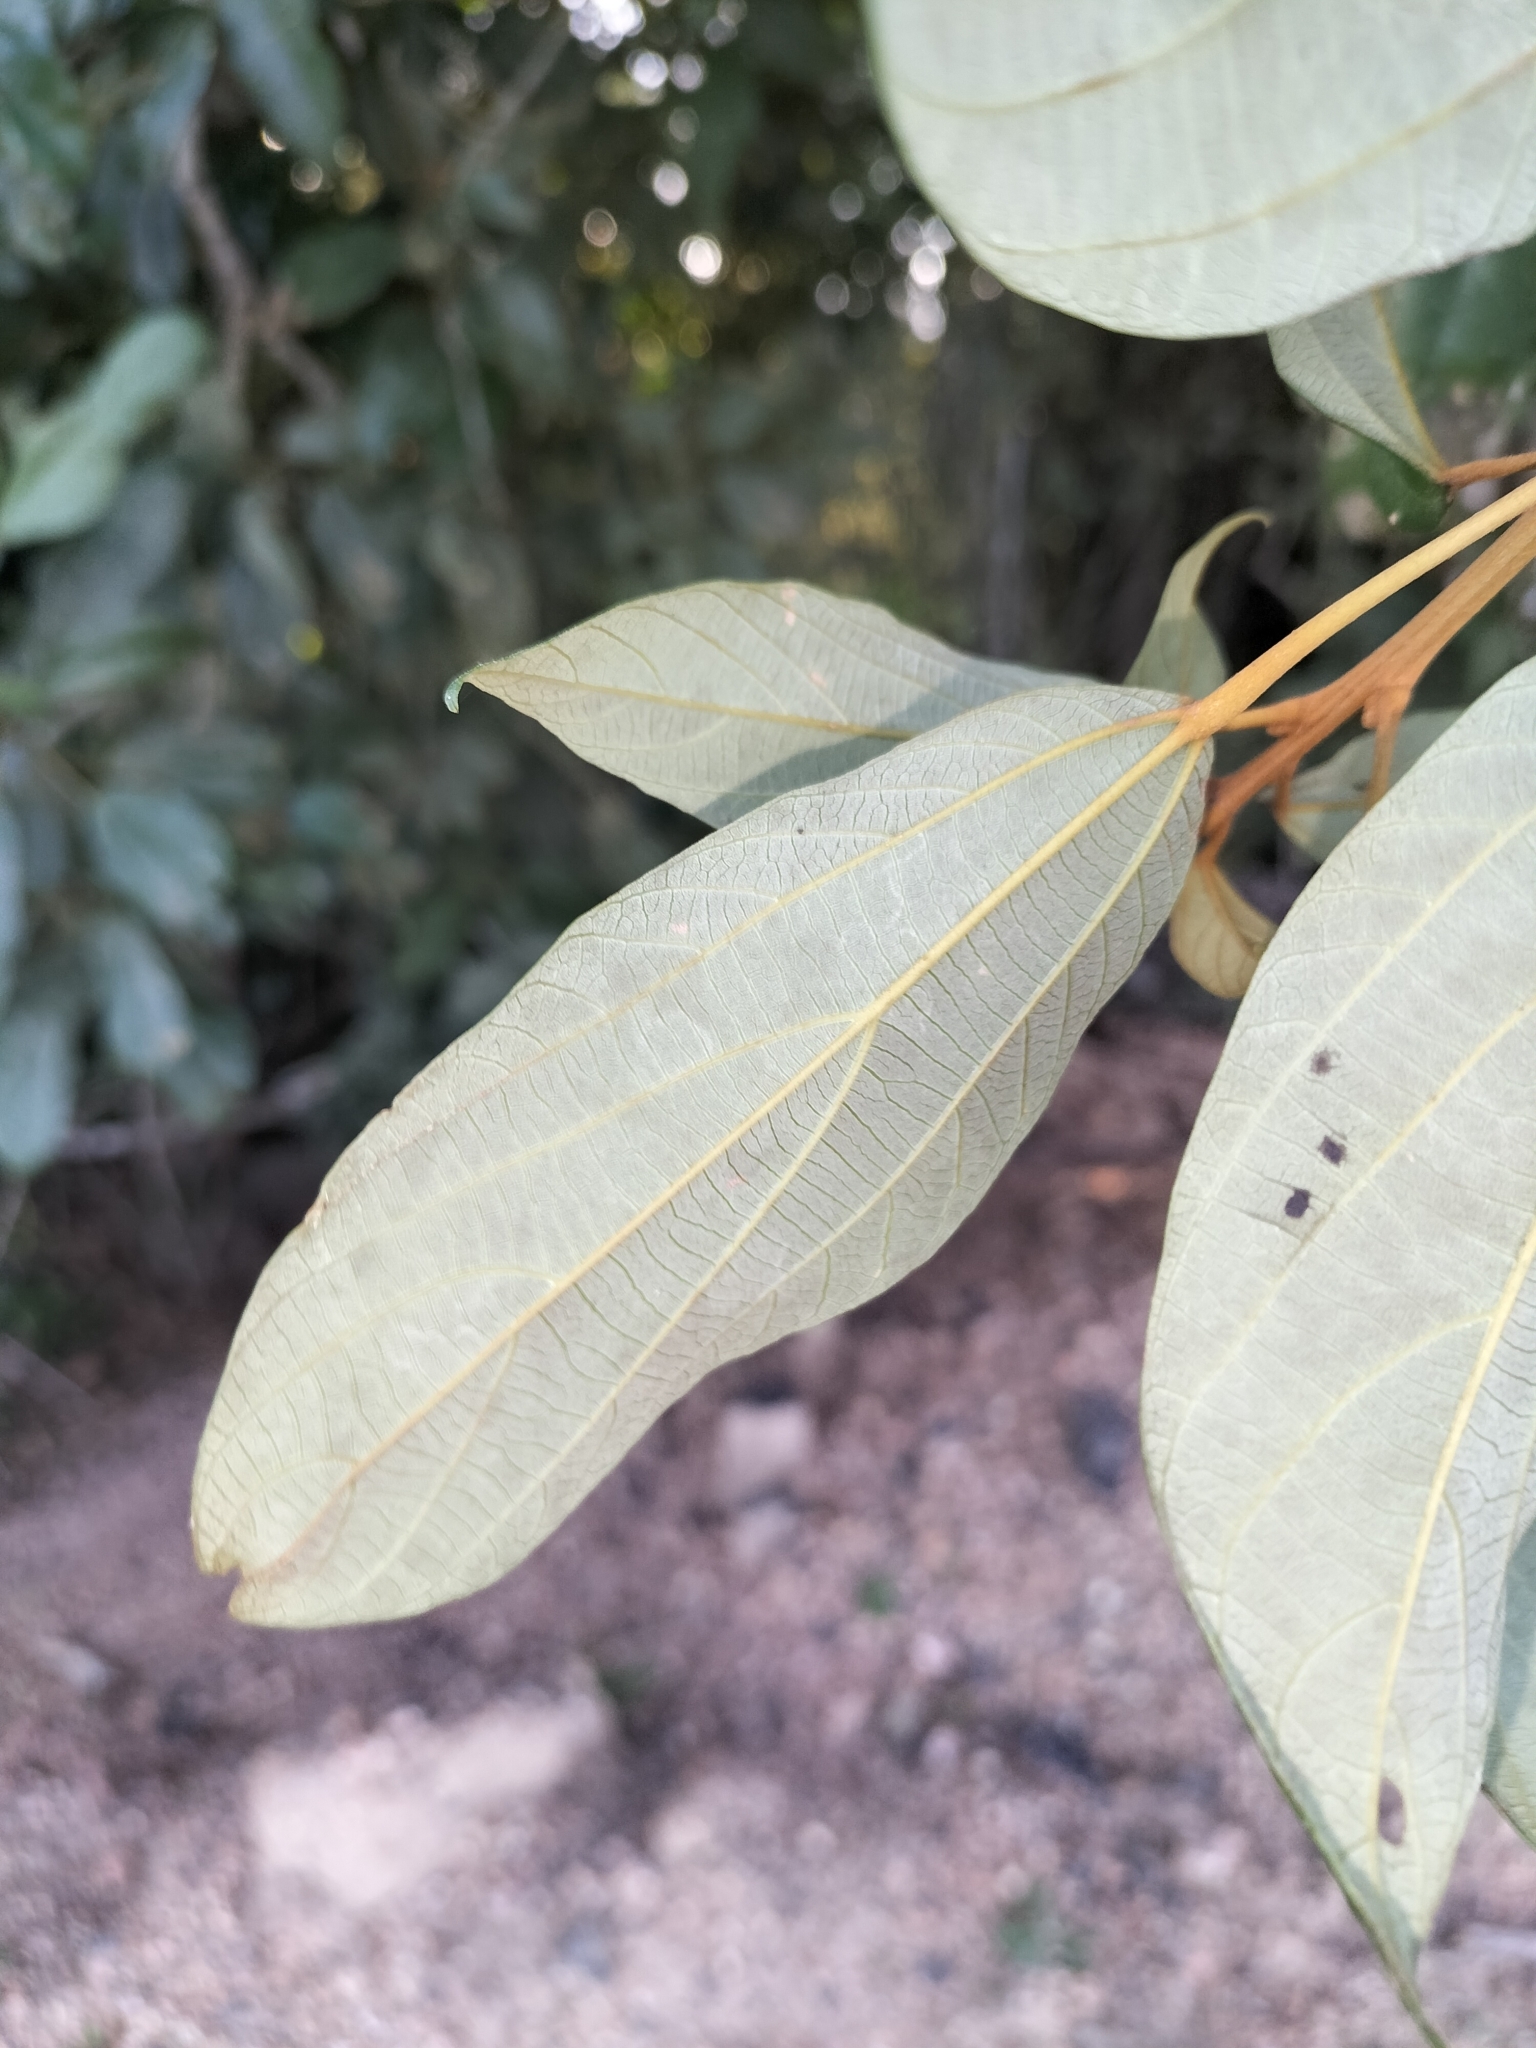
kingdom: Plantae
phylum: Tracheophyta
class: Magnoliopsida
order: Malpighiales
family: Euphorbiaceae
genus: Mallotus
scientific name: Mallotus philippensis
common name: Kamala tree
